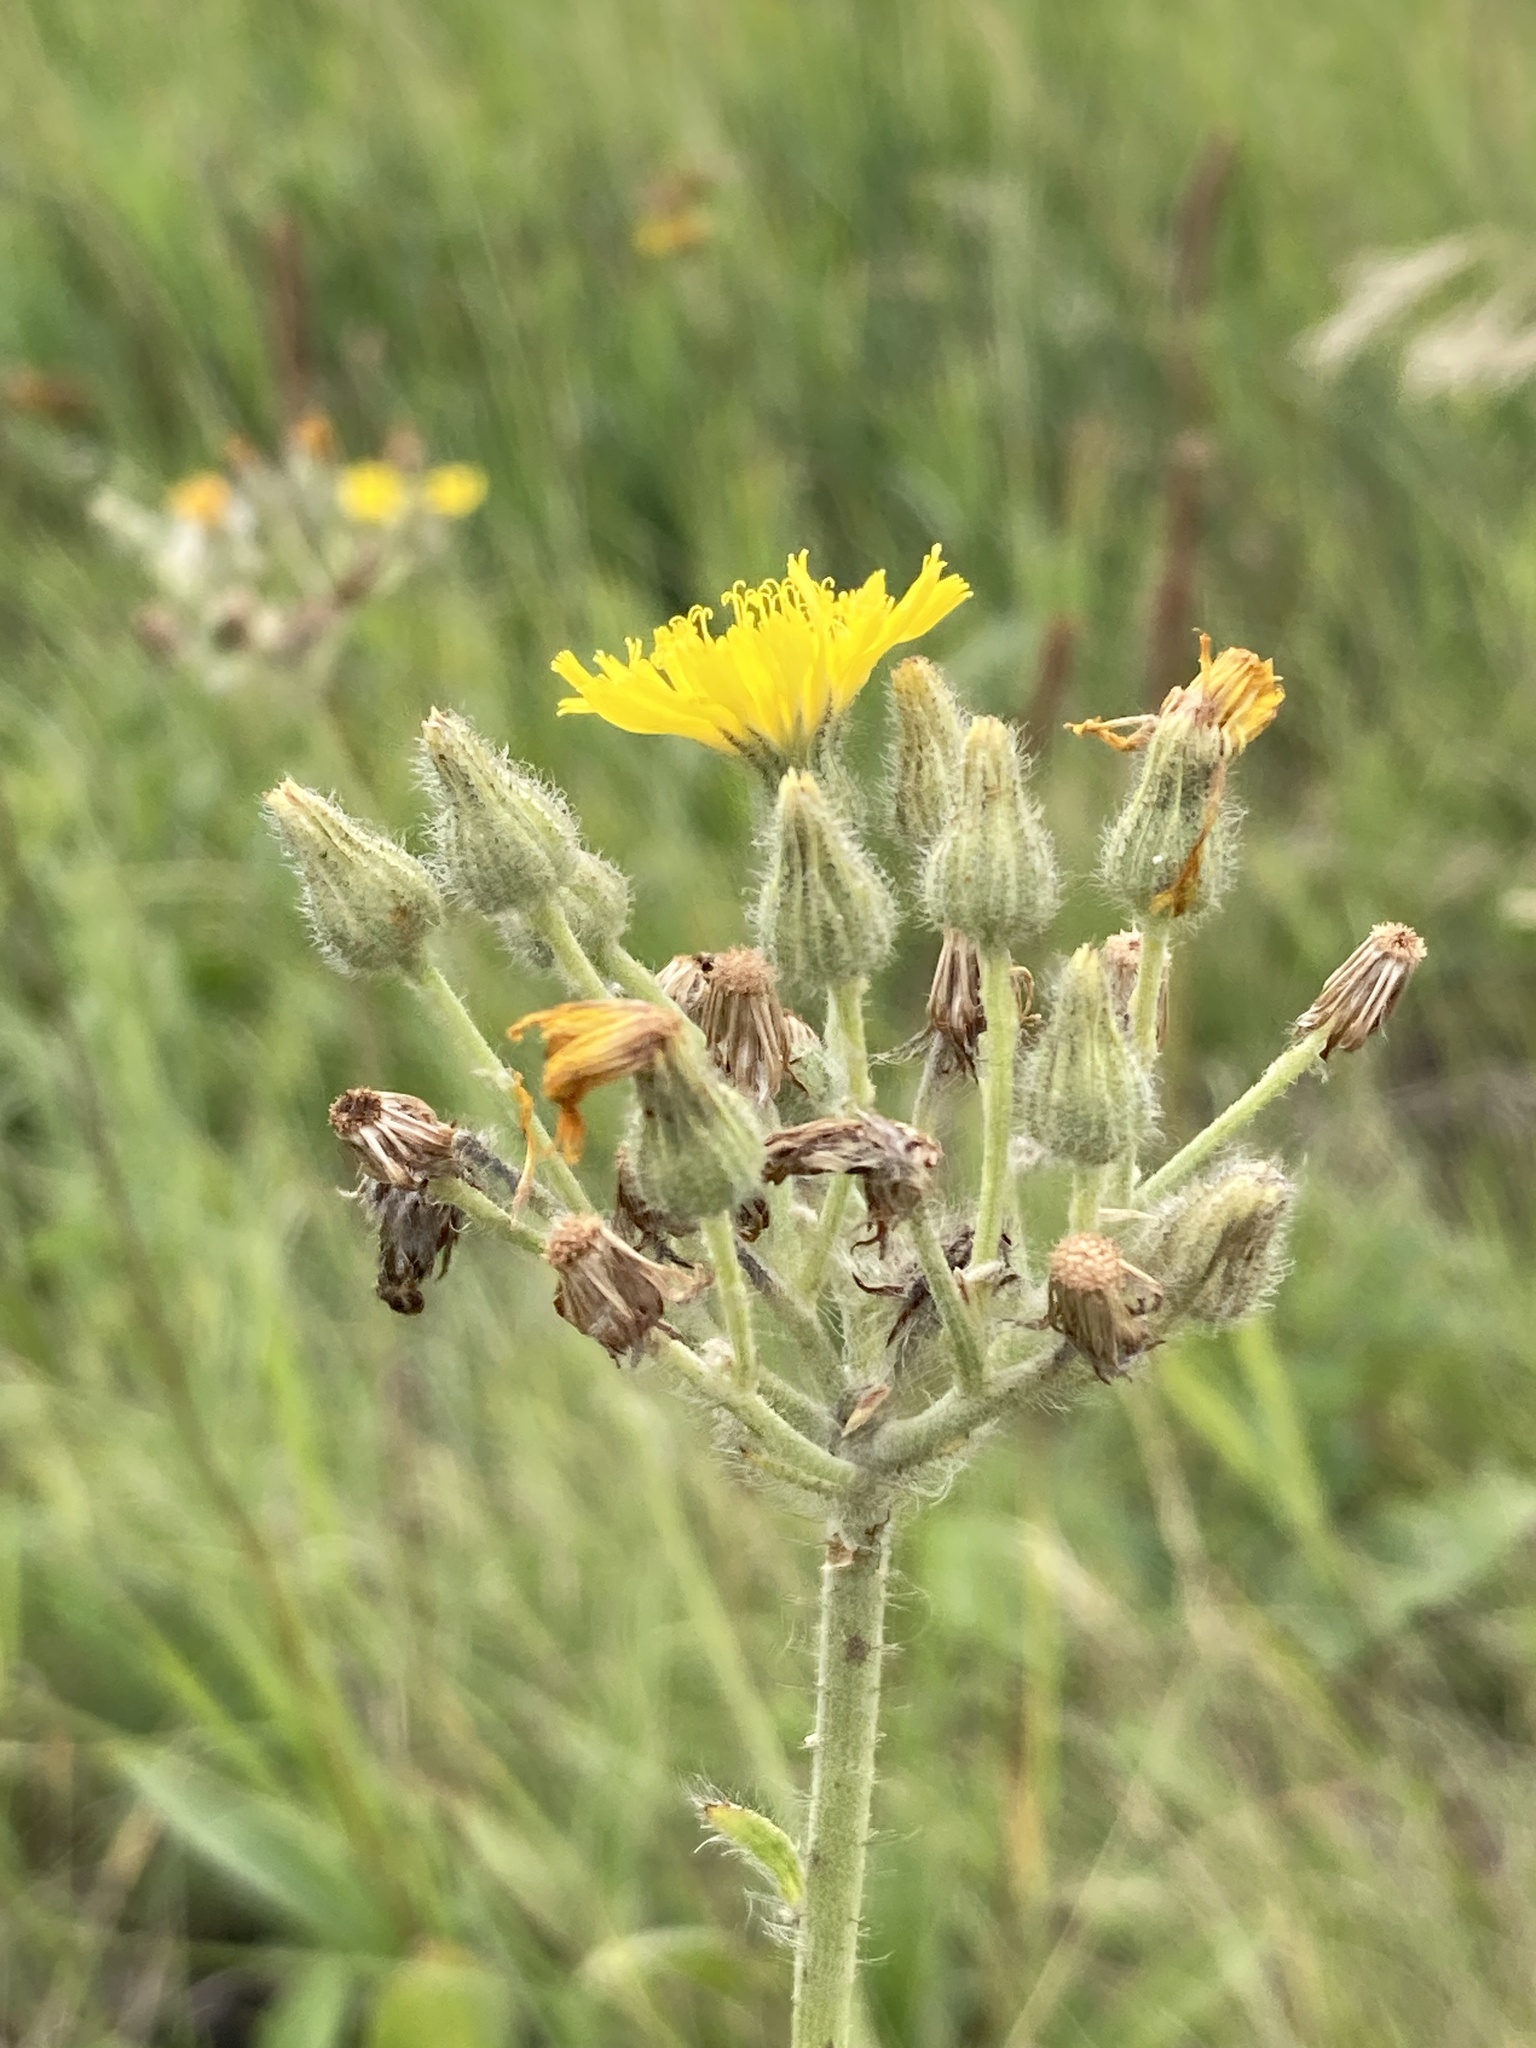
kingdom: Plantae
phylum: Tracheophyta
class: Magnoliopsida
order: Asterales
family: Asteraceae
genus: Pilosella
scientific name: Pilosella echioides
